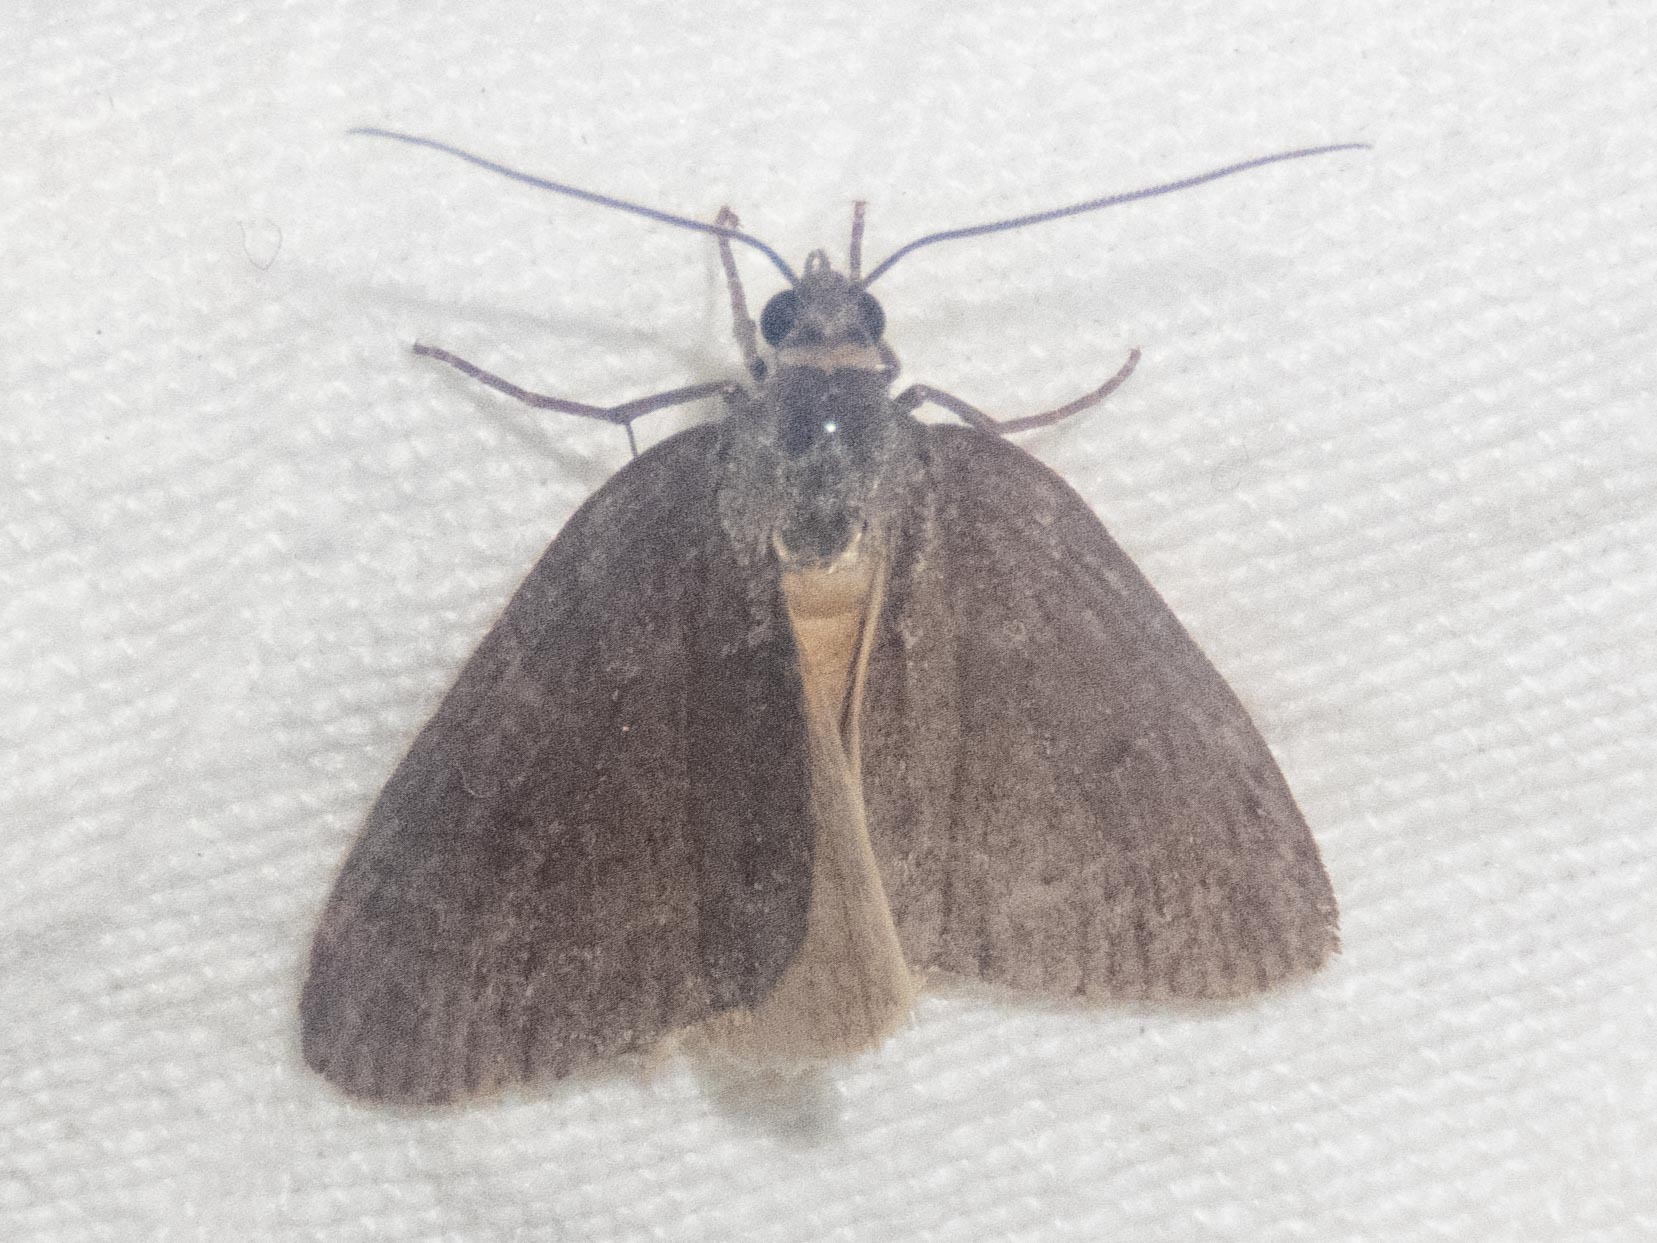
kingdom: Animalia
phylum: Arthropoda
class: Insecta
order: Lepidoptera
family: Geometridae
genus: Pachycnemia
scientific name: Pachycnemia hippocastanaria
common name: Horse chestnut
